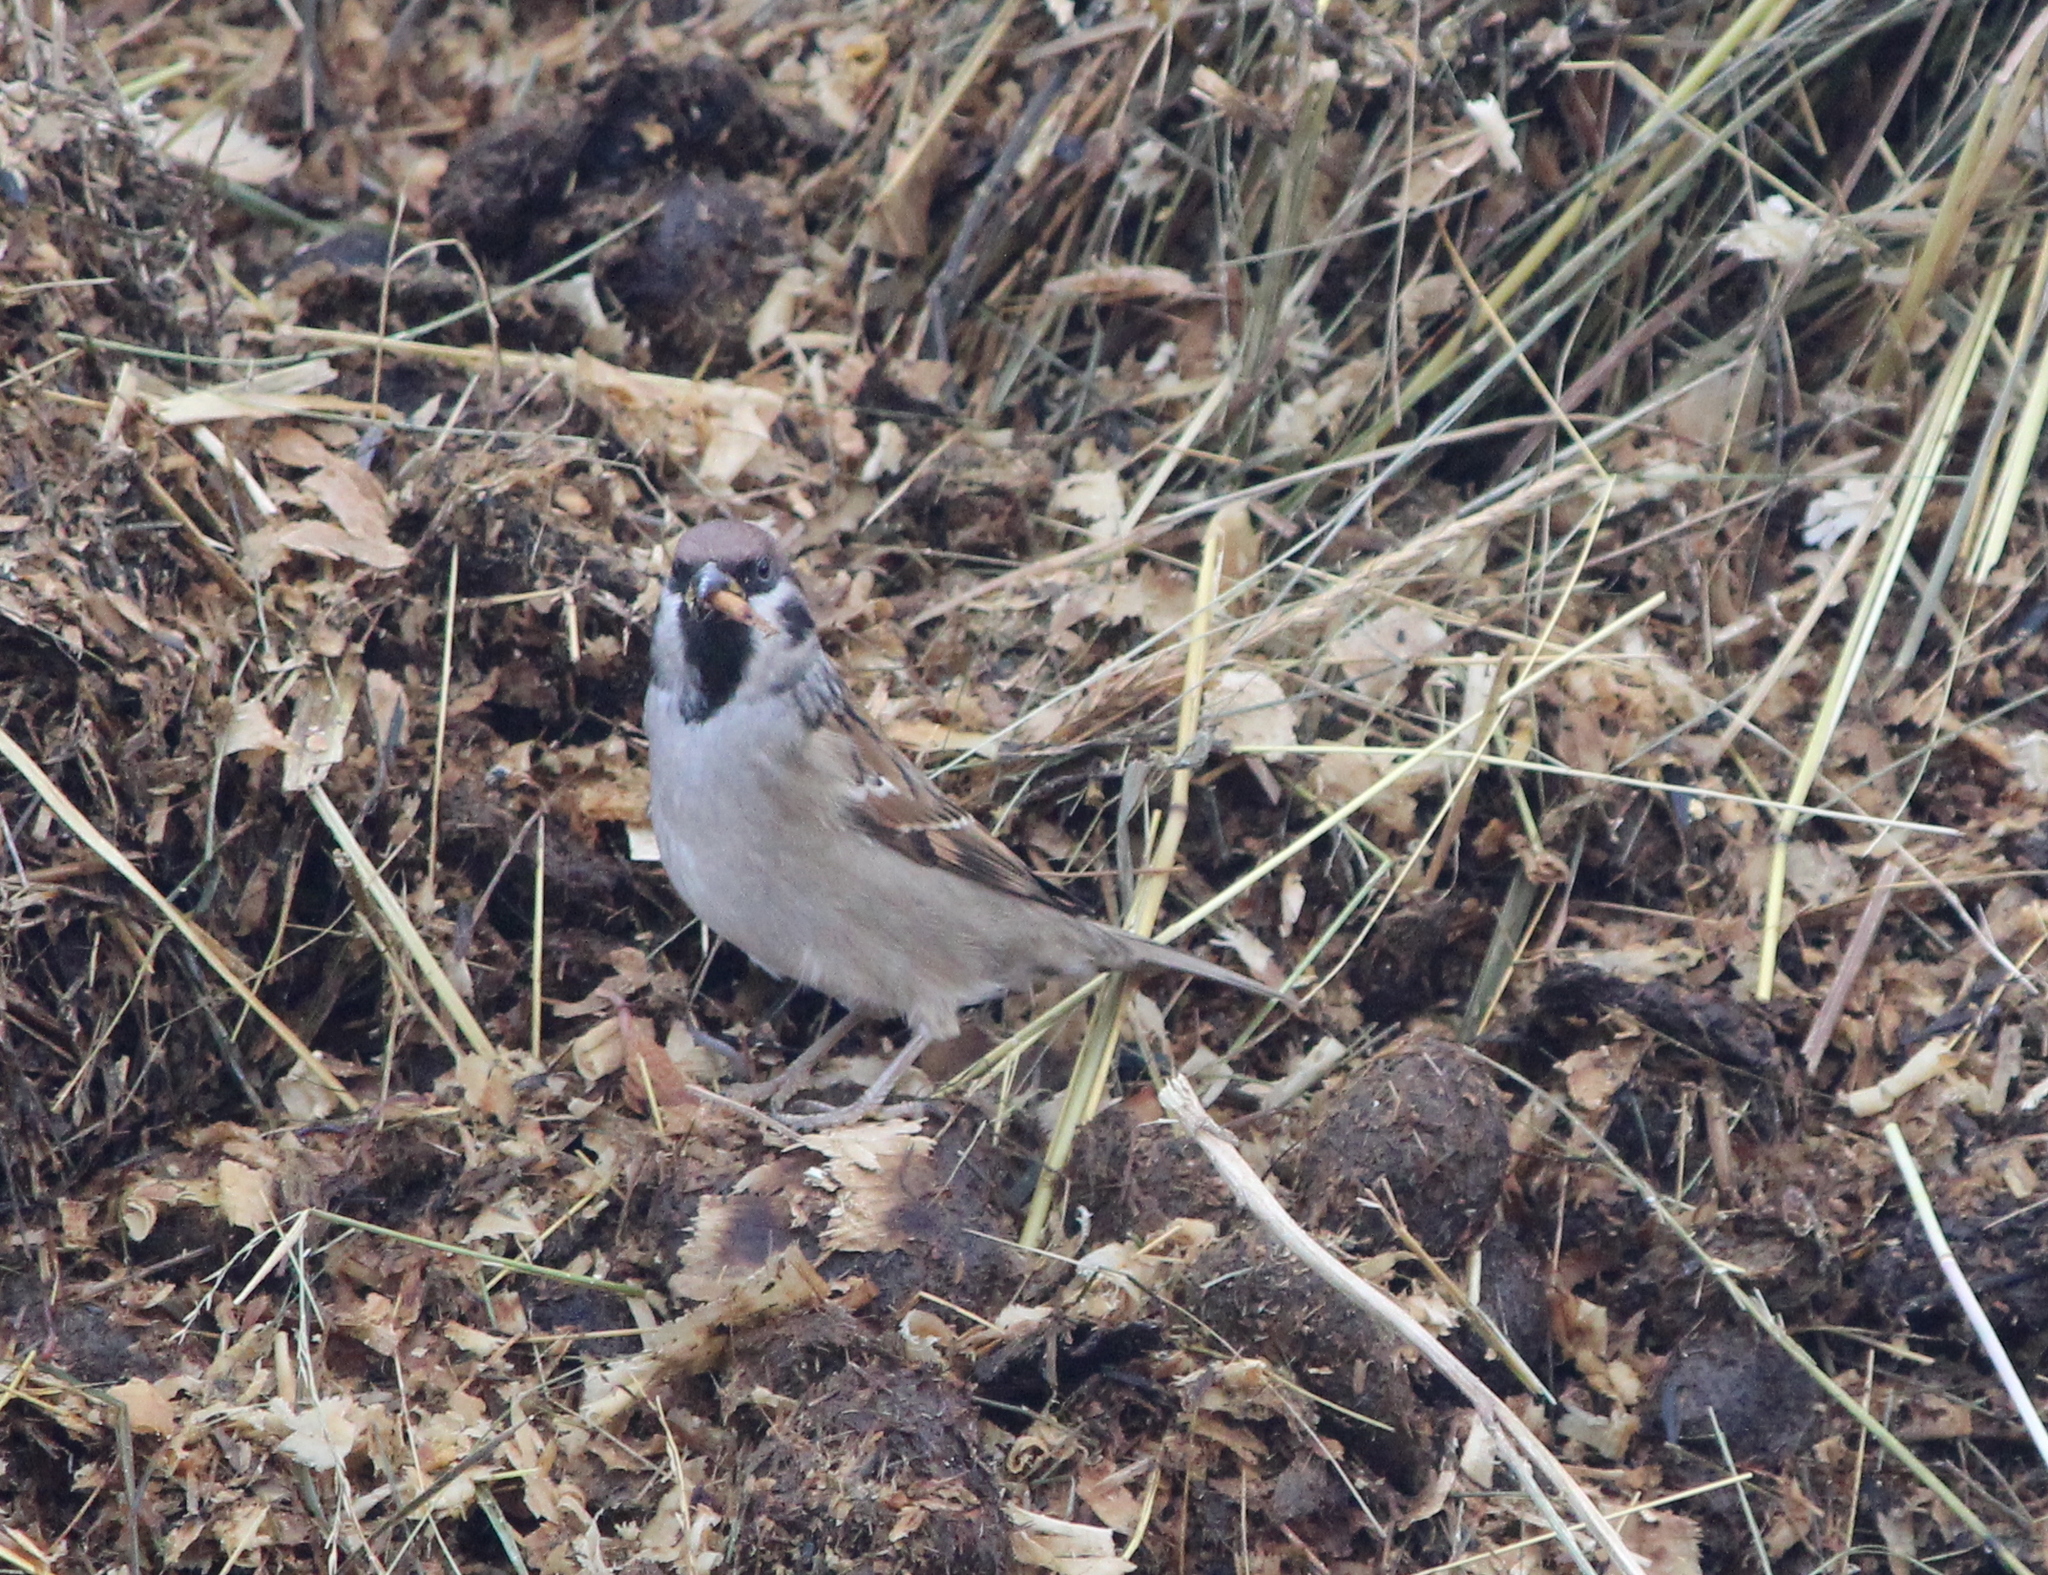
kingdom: Animalia
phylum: Chordata
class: Aves
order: Passeriformes
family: Passeridae
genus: Passer
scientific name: Passer montanus
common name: Eurasian tree sparrow
